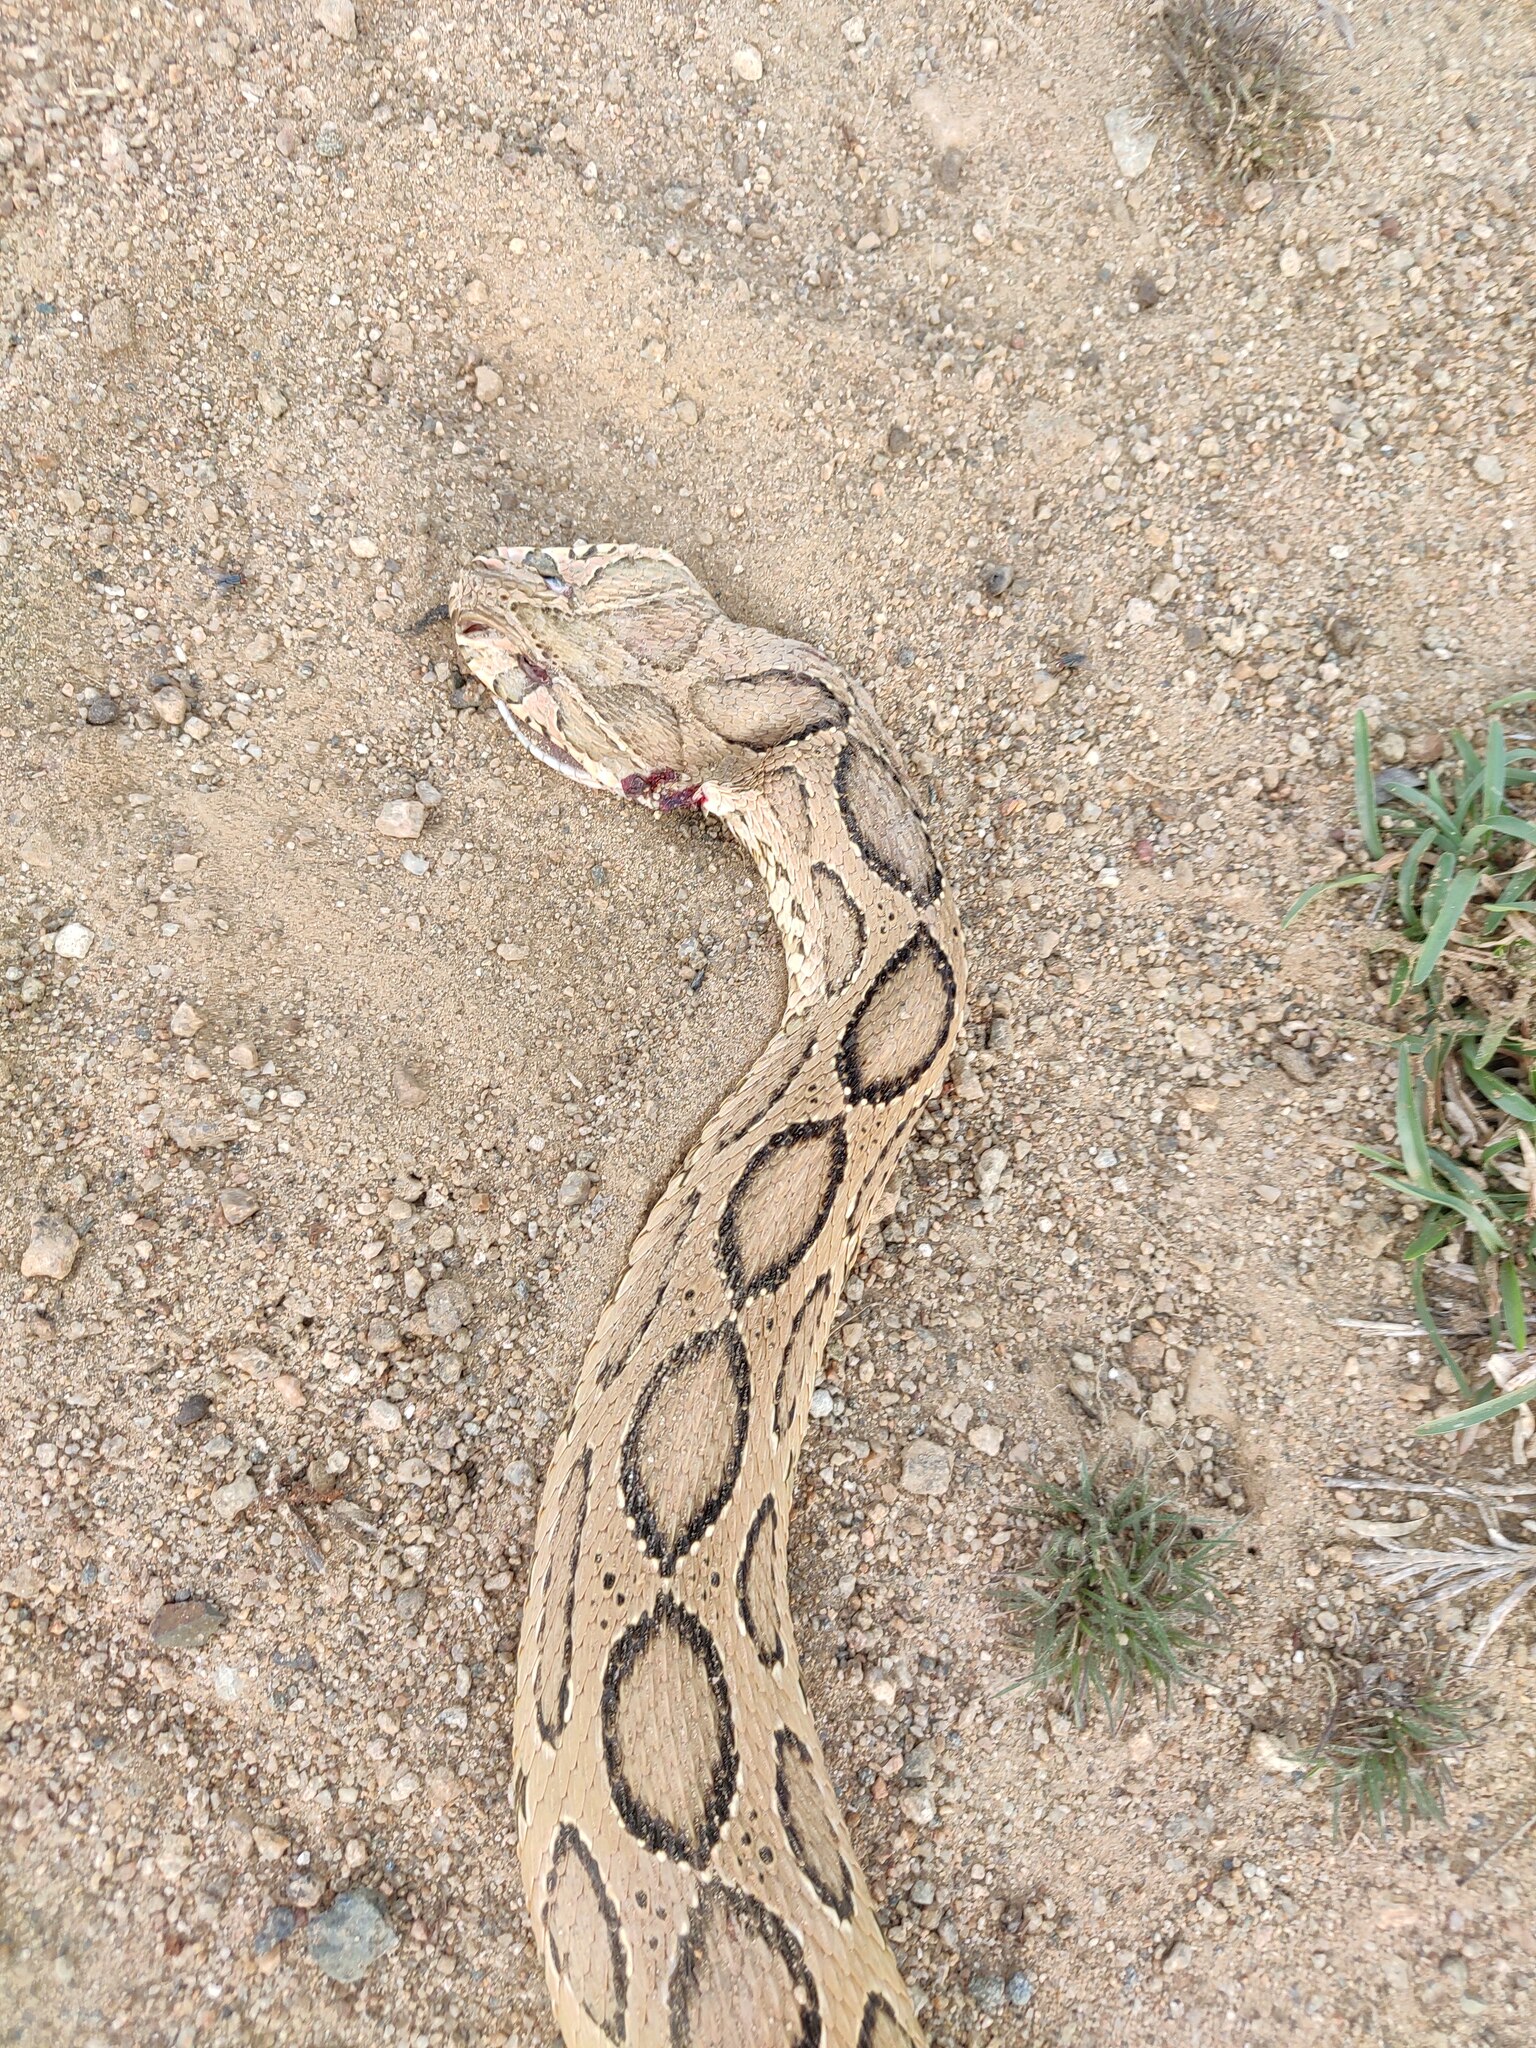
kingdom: Animalia
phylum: Chordata
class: Squamata
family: Viperidae
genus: Daboia
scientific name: Daboia russelii
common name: Western russel’s viper
